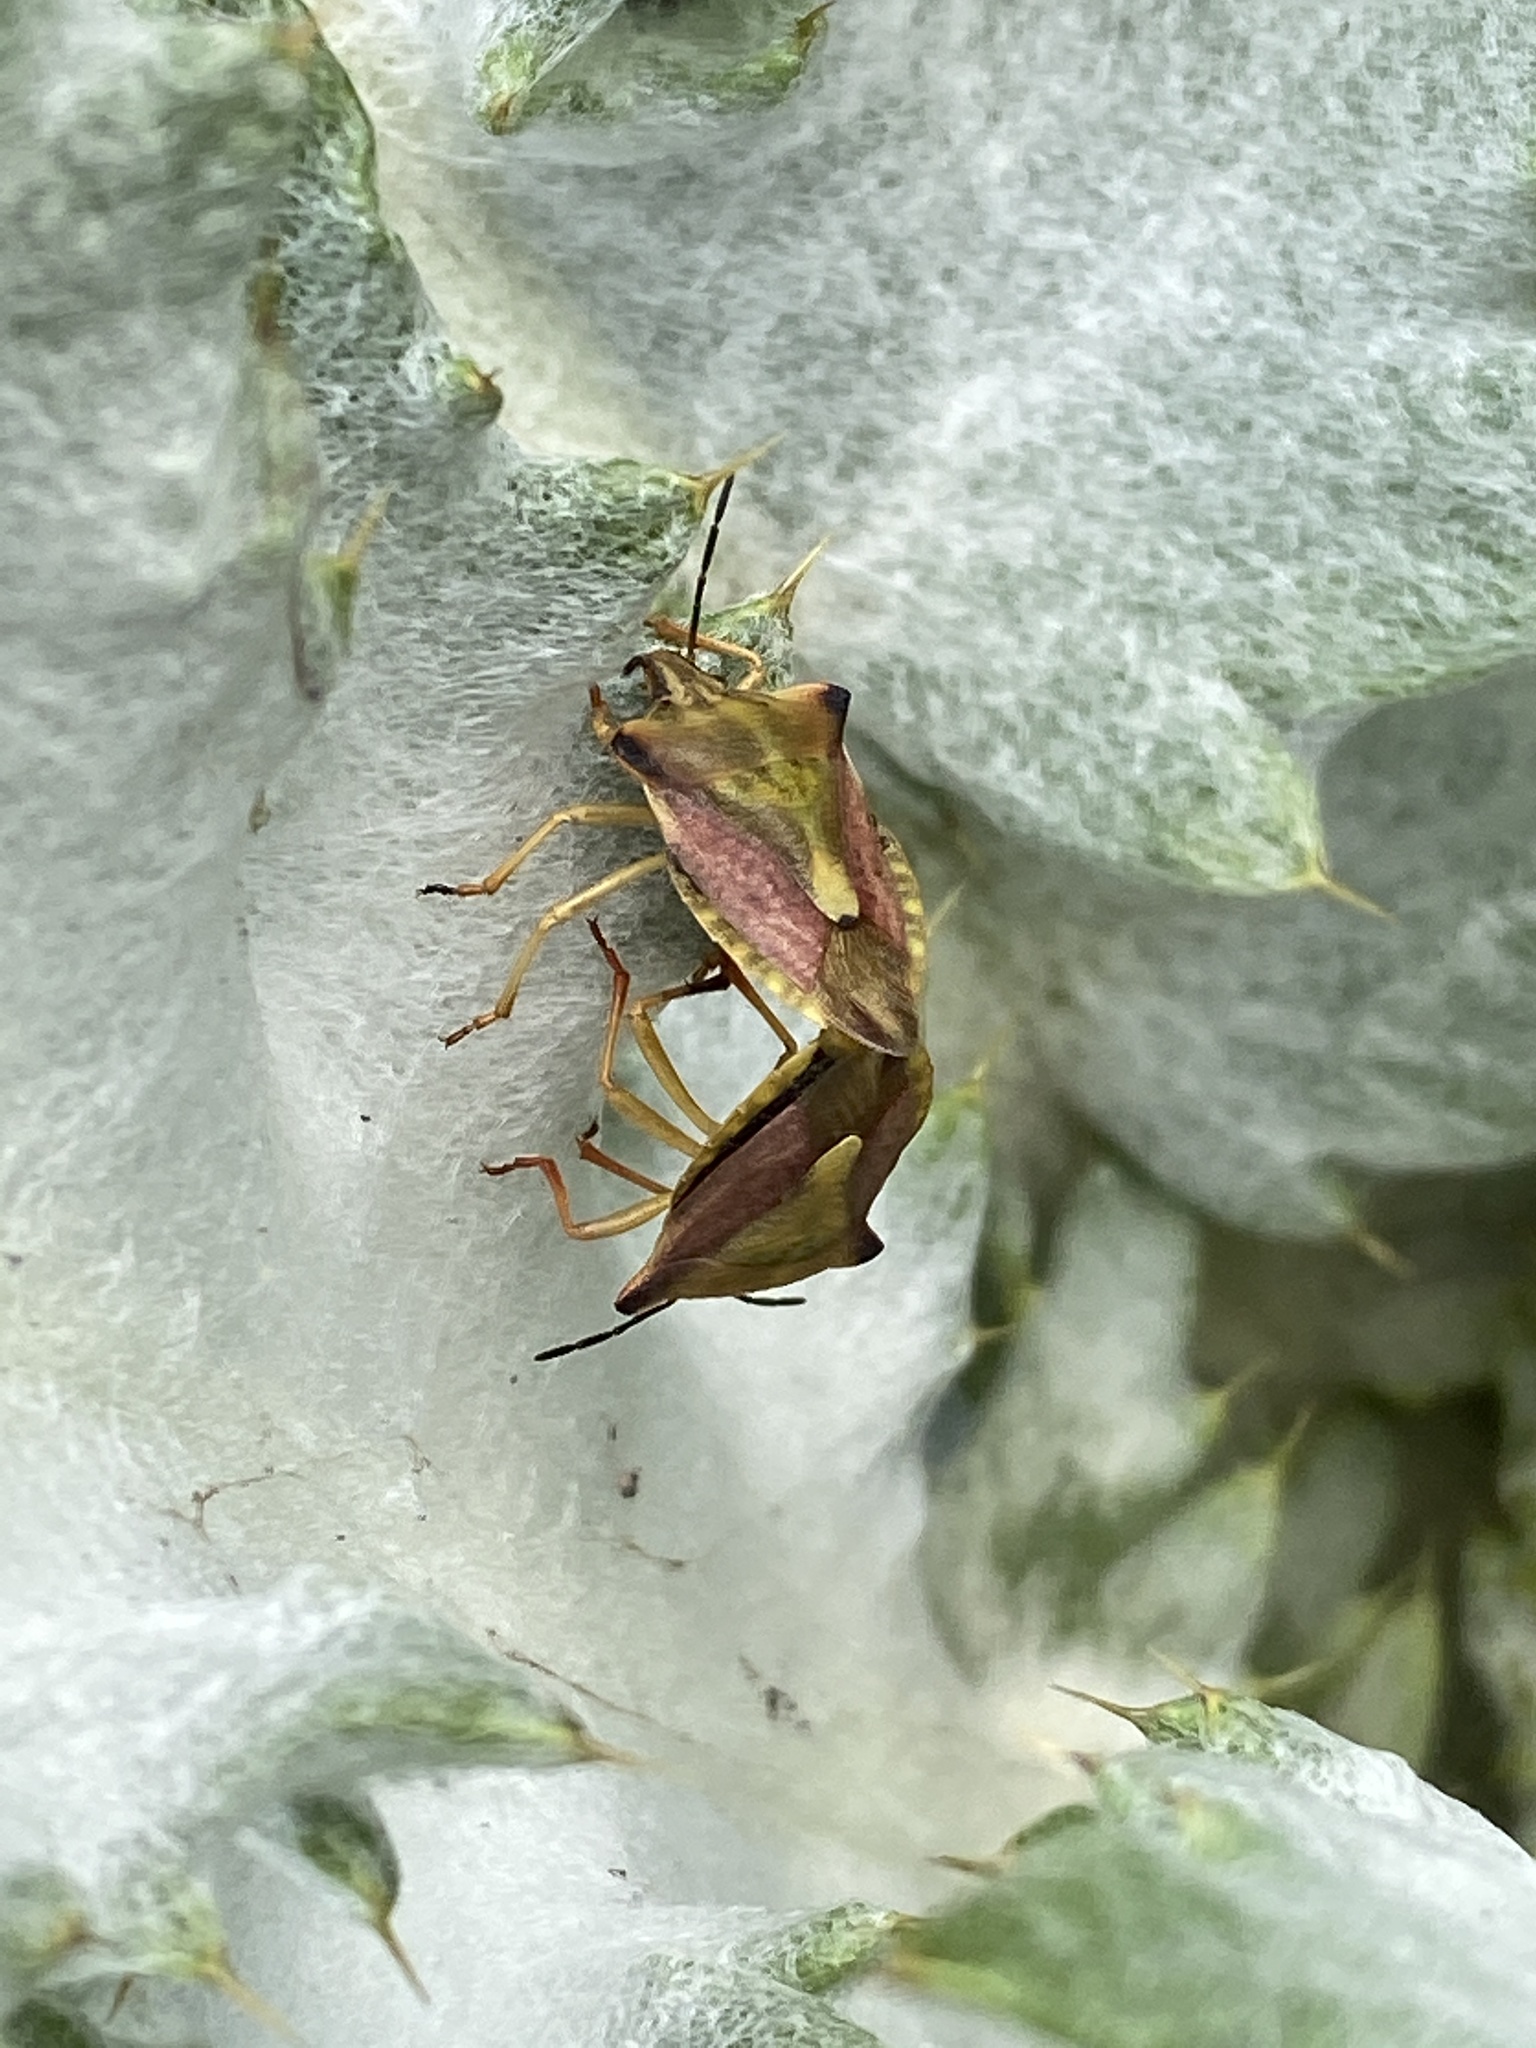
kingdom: Animalia
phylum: Arthropoda
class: Insecta
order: Hemiptera
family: Pentatomidae
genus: Carpocoris
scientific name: Carpocoris fuscispinus
